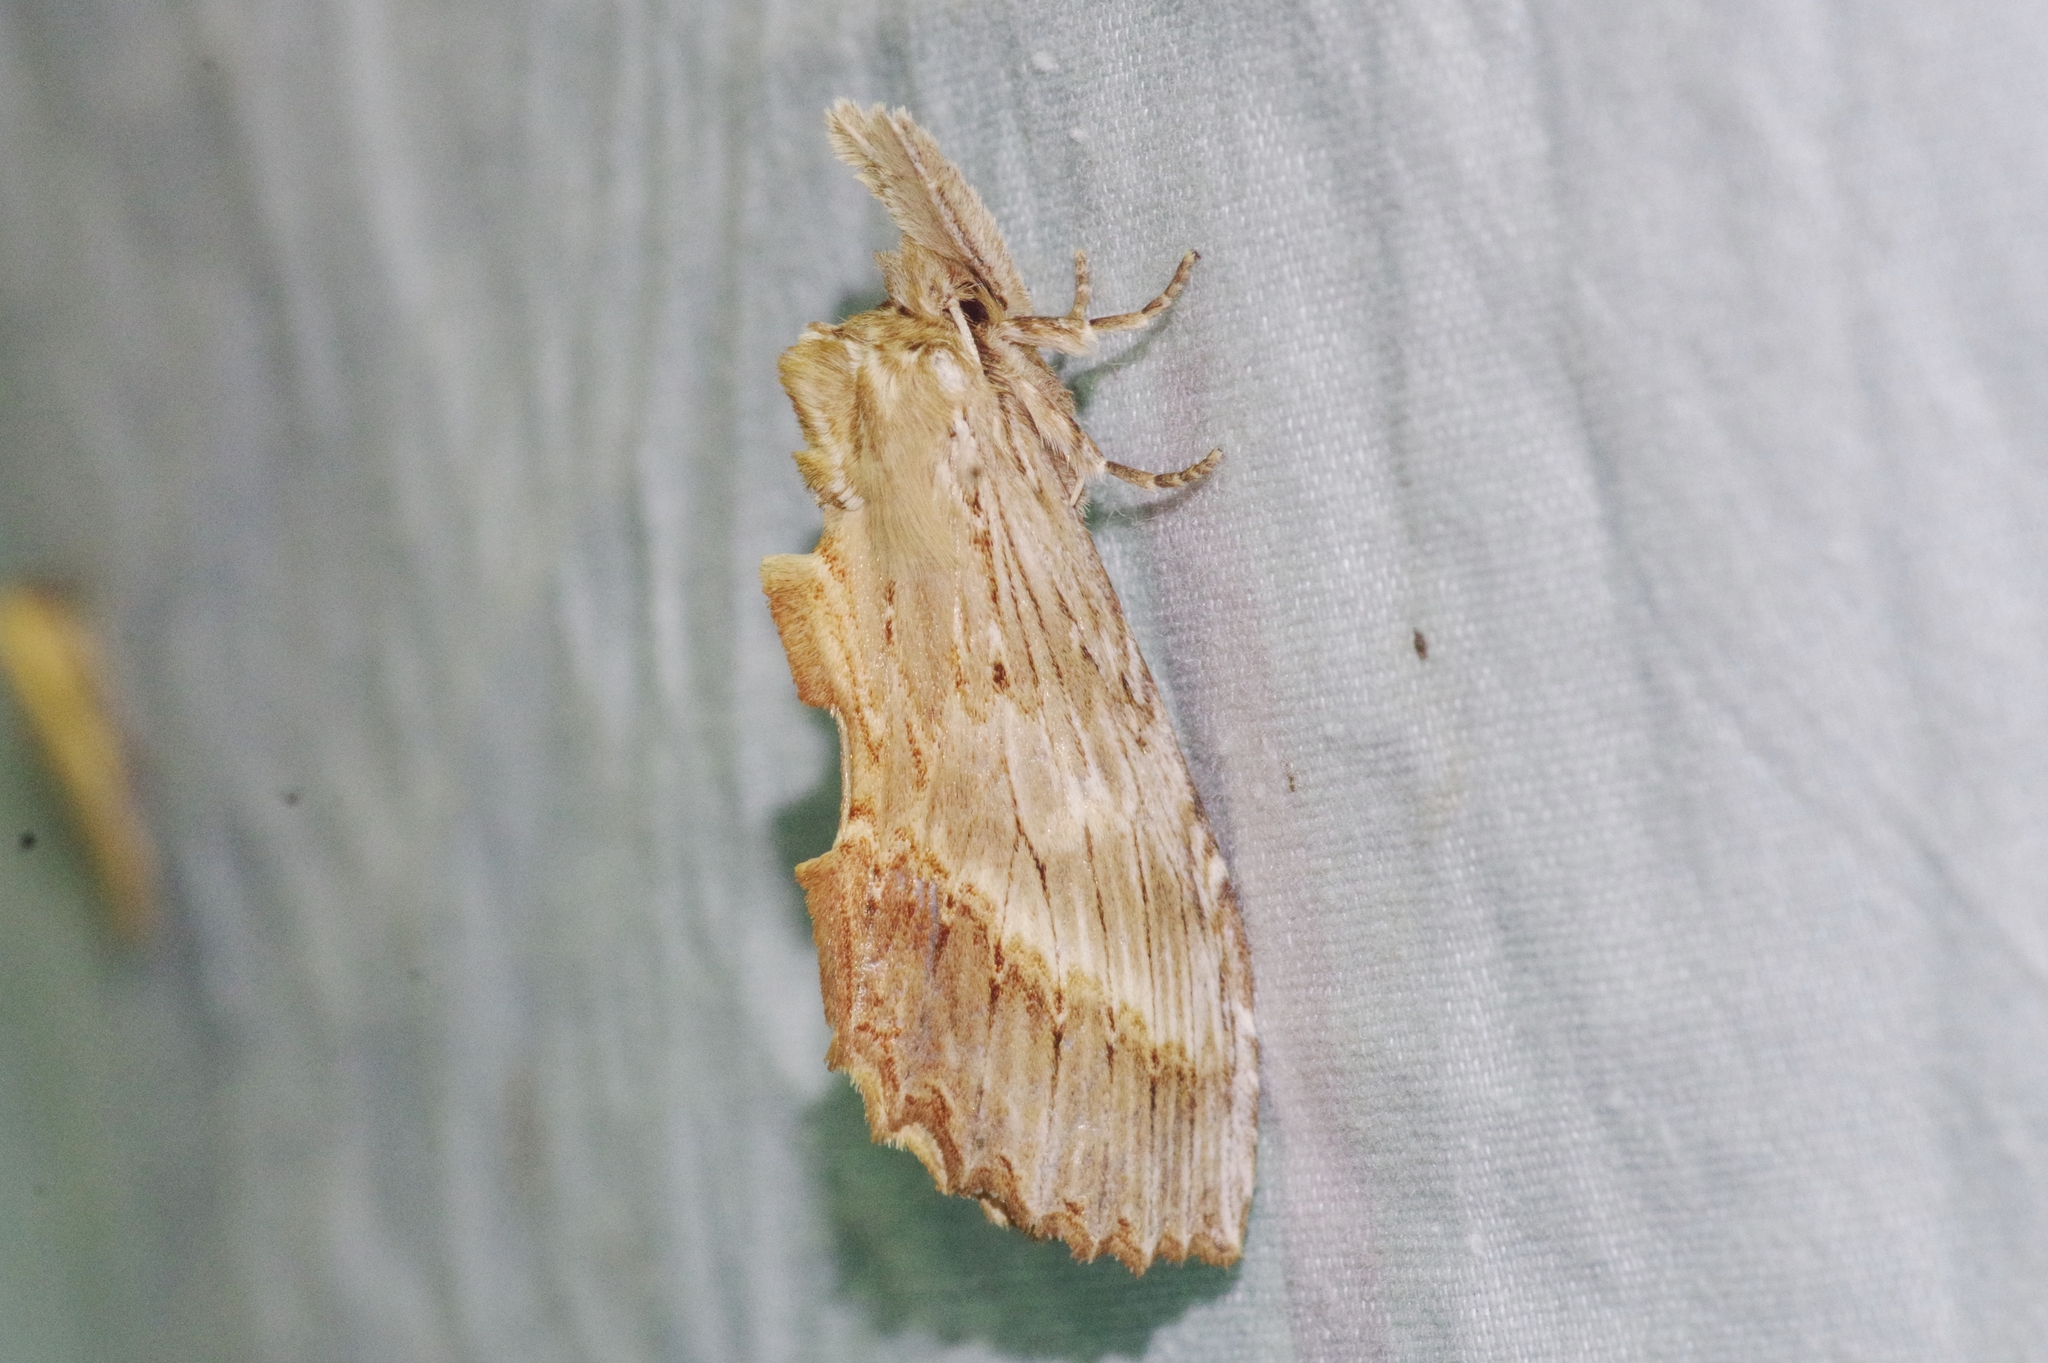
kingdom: Animalia
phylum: Arthropoda
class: Insecta
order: Lepidoptera
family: Notodontidae
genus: Pterostoma
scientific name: Pterostoma gigantina
